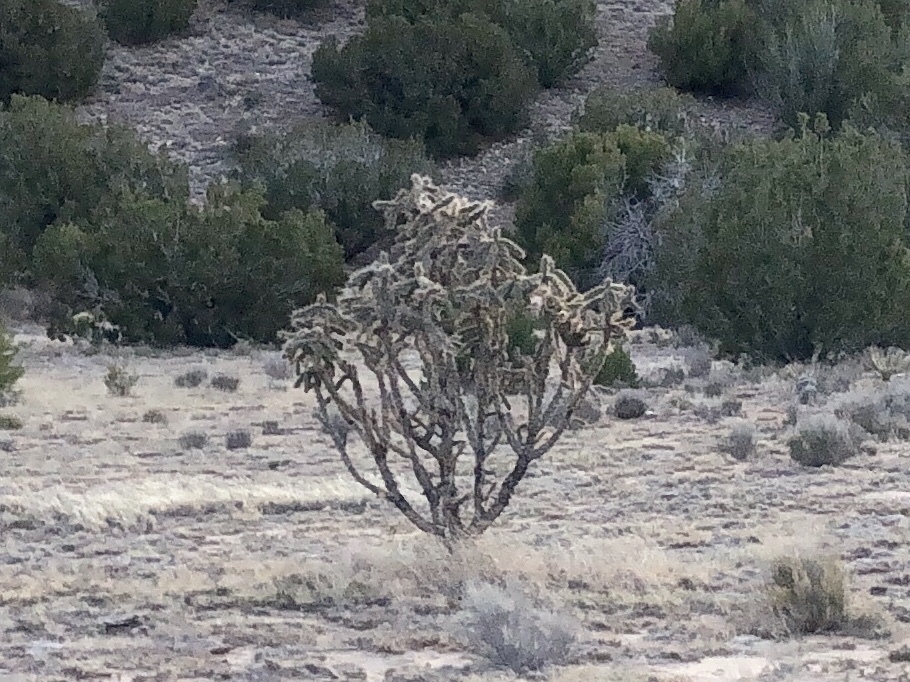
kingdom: Plantae
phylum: Tracheophyta
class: Magnoliopsida
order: Caryophyllales
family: Cactaceae
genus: Cylindropuntia
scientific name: Cylindropuntia imbricata
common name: Candelabrum cactus
